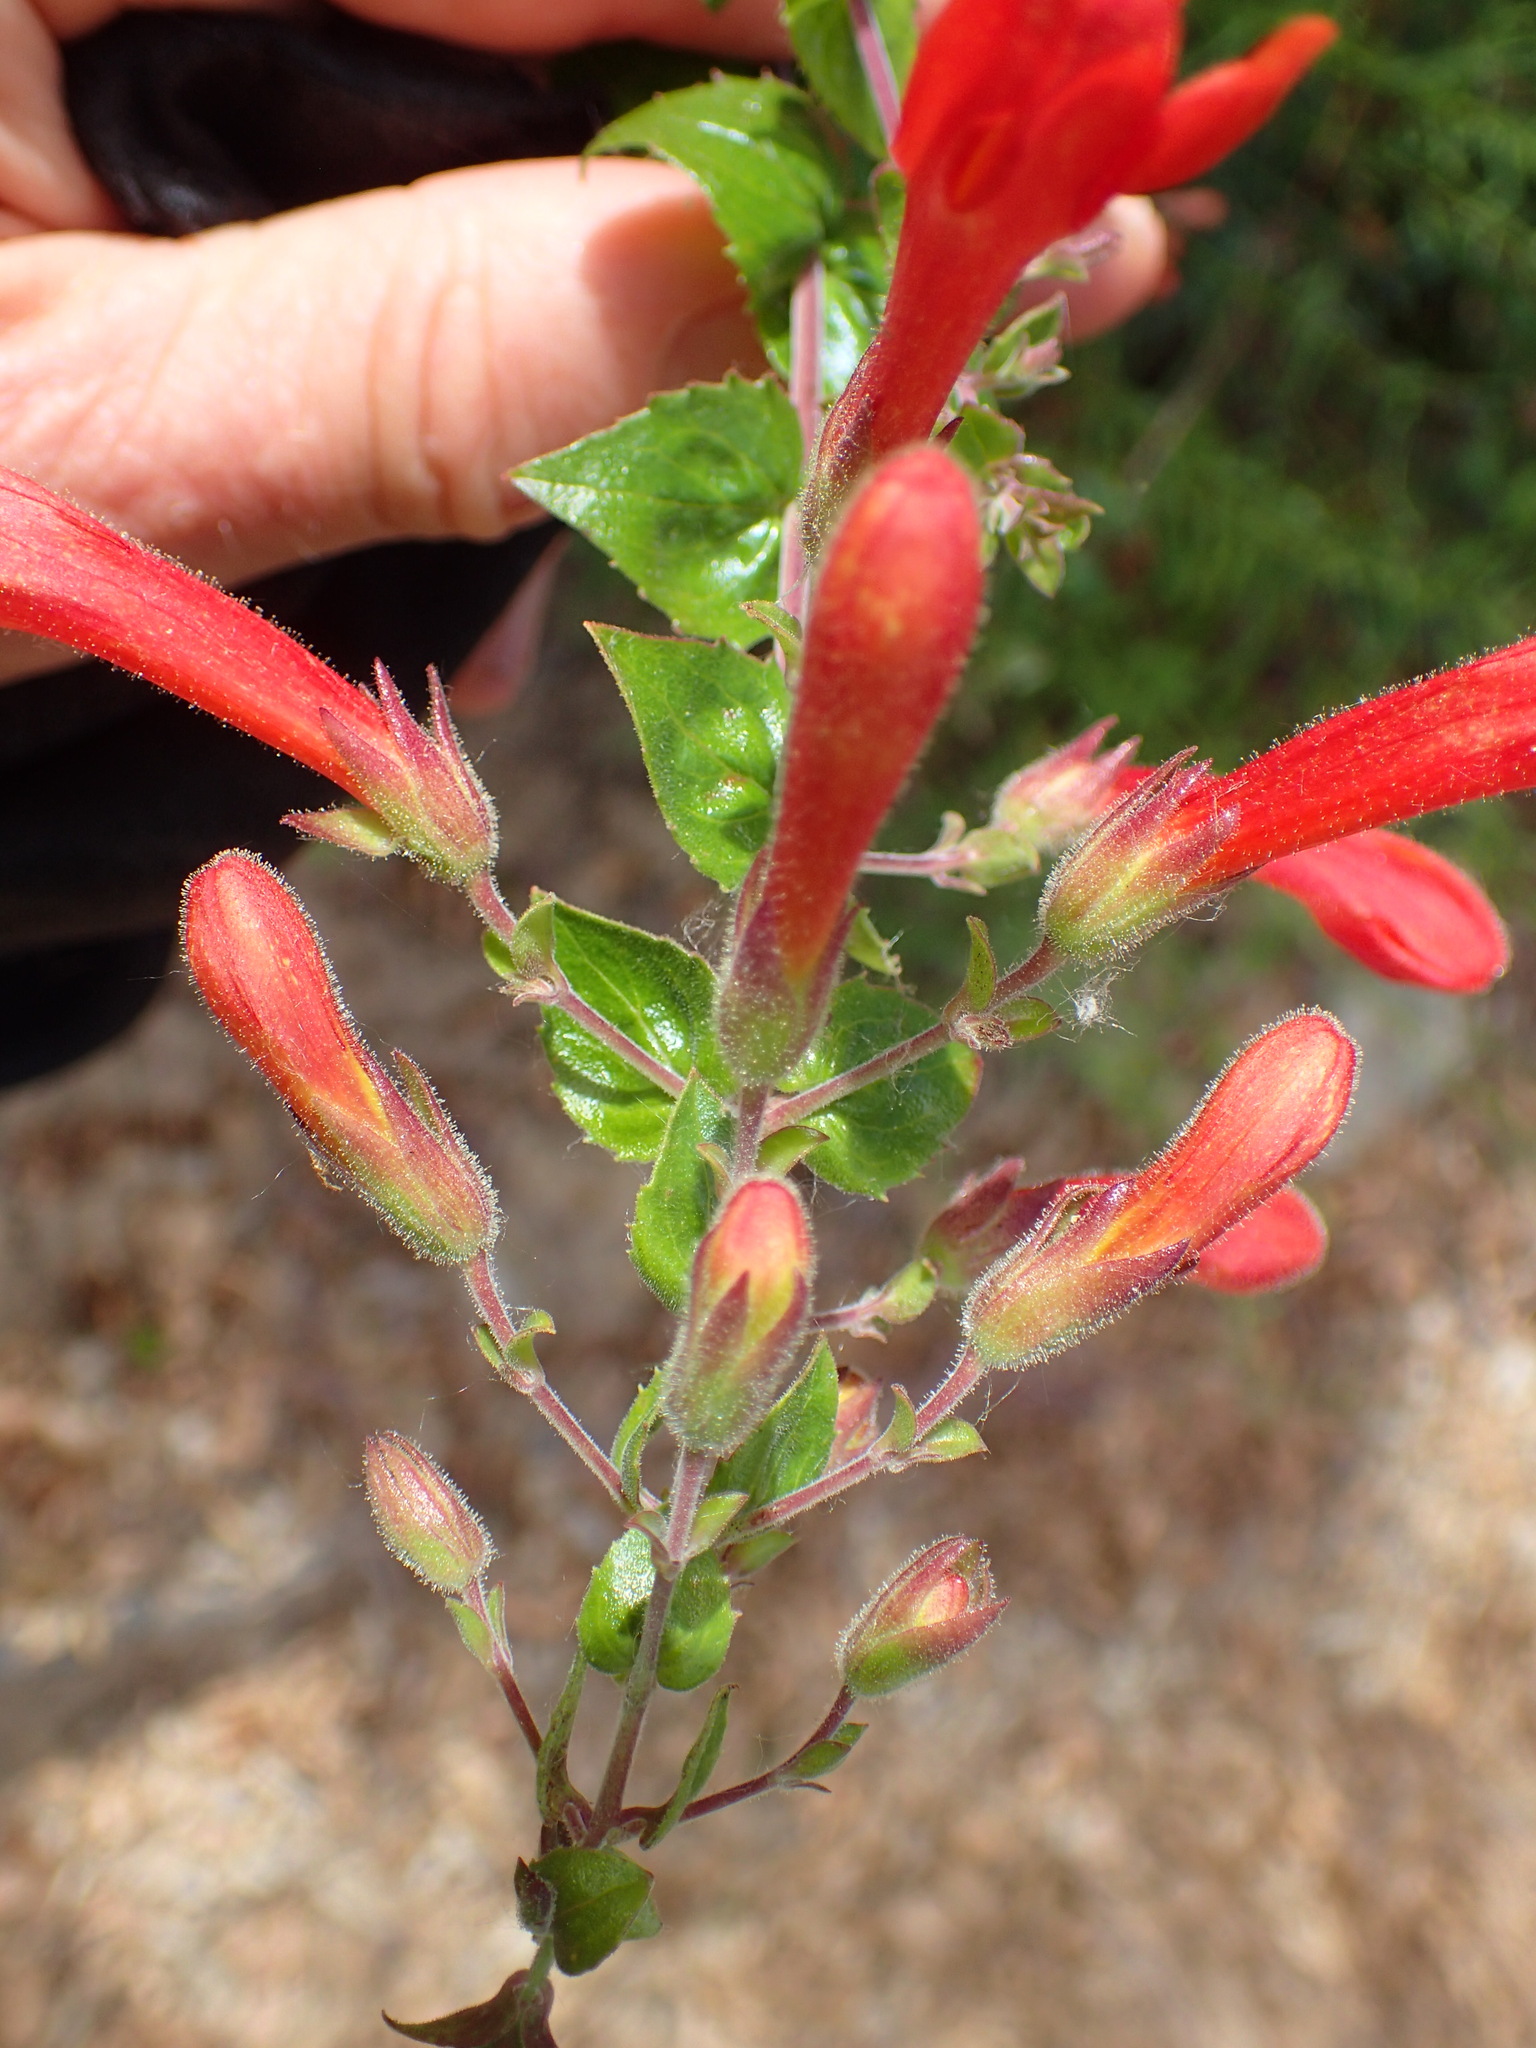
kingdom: Plantae
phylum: Tracheophyta
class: Magnoliopsida
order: Lamiales
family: Plantaginaceae
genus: Keckiella
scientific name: Keckiella cordifolia
